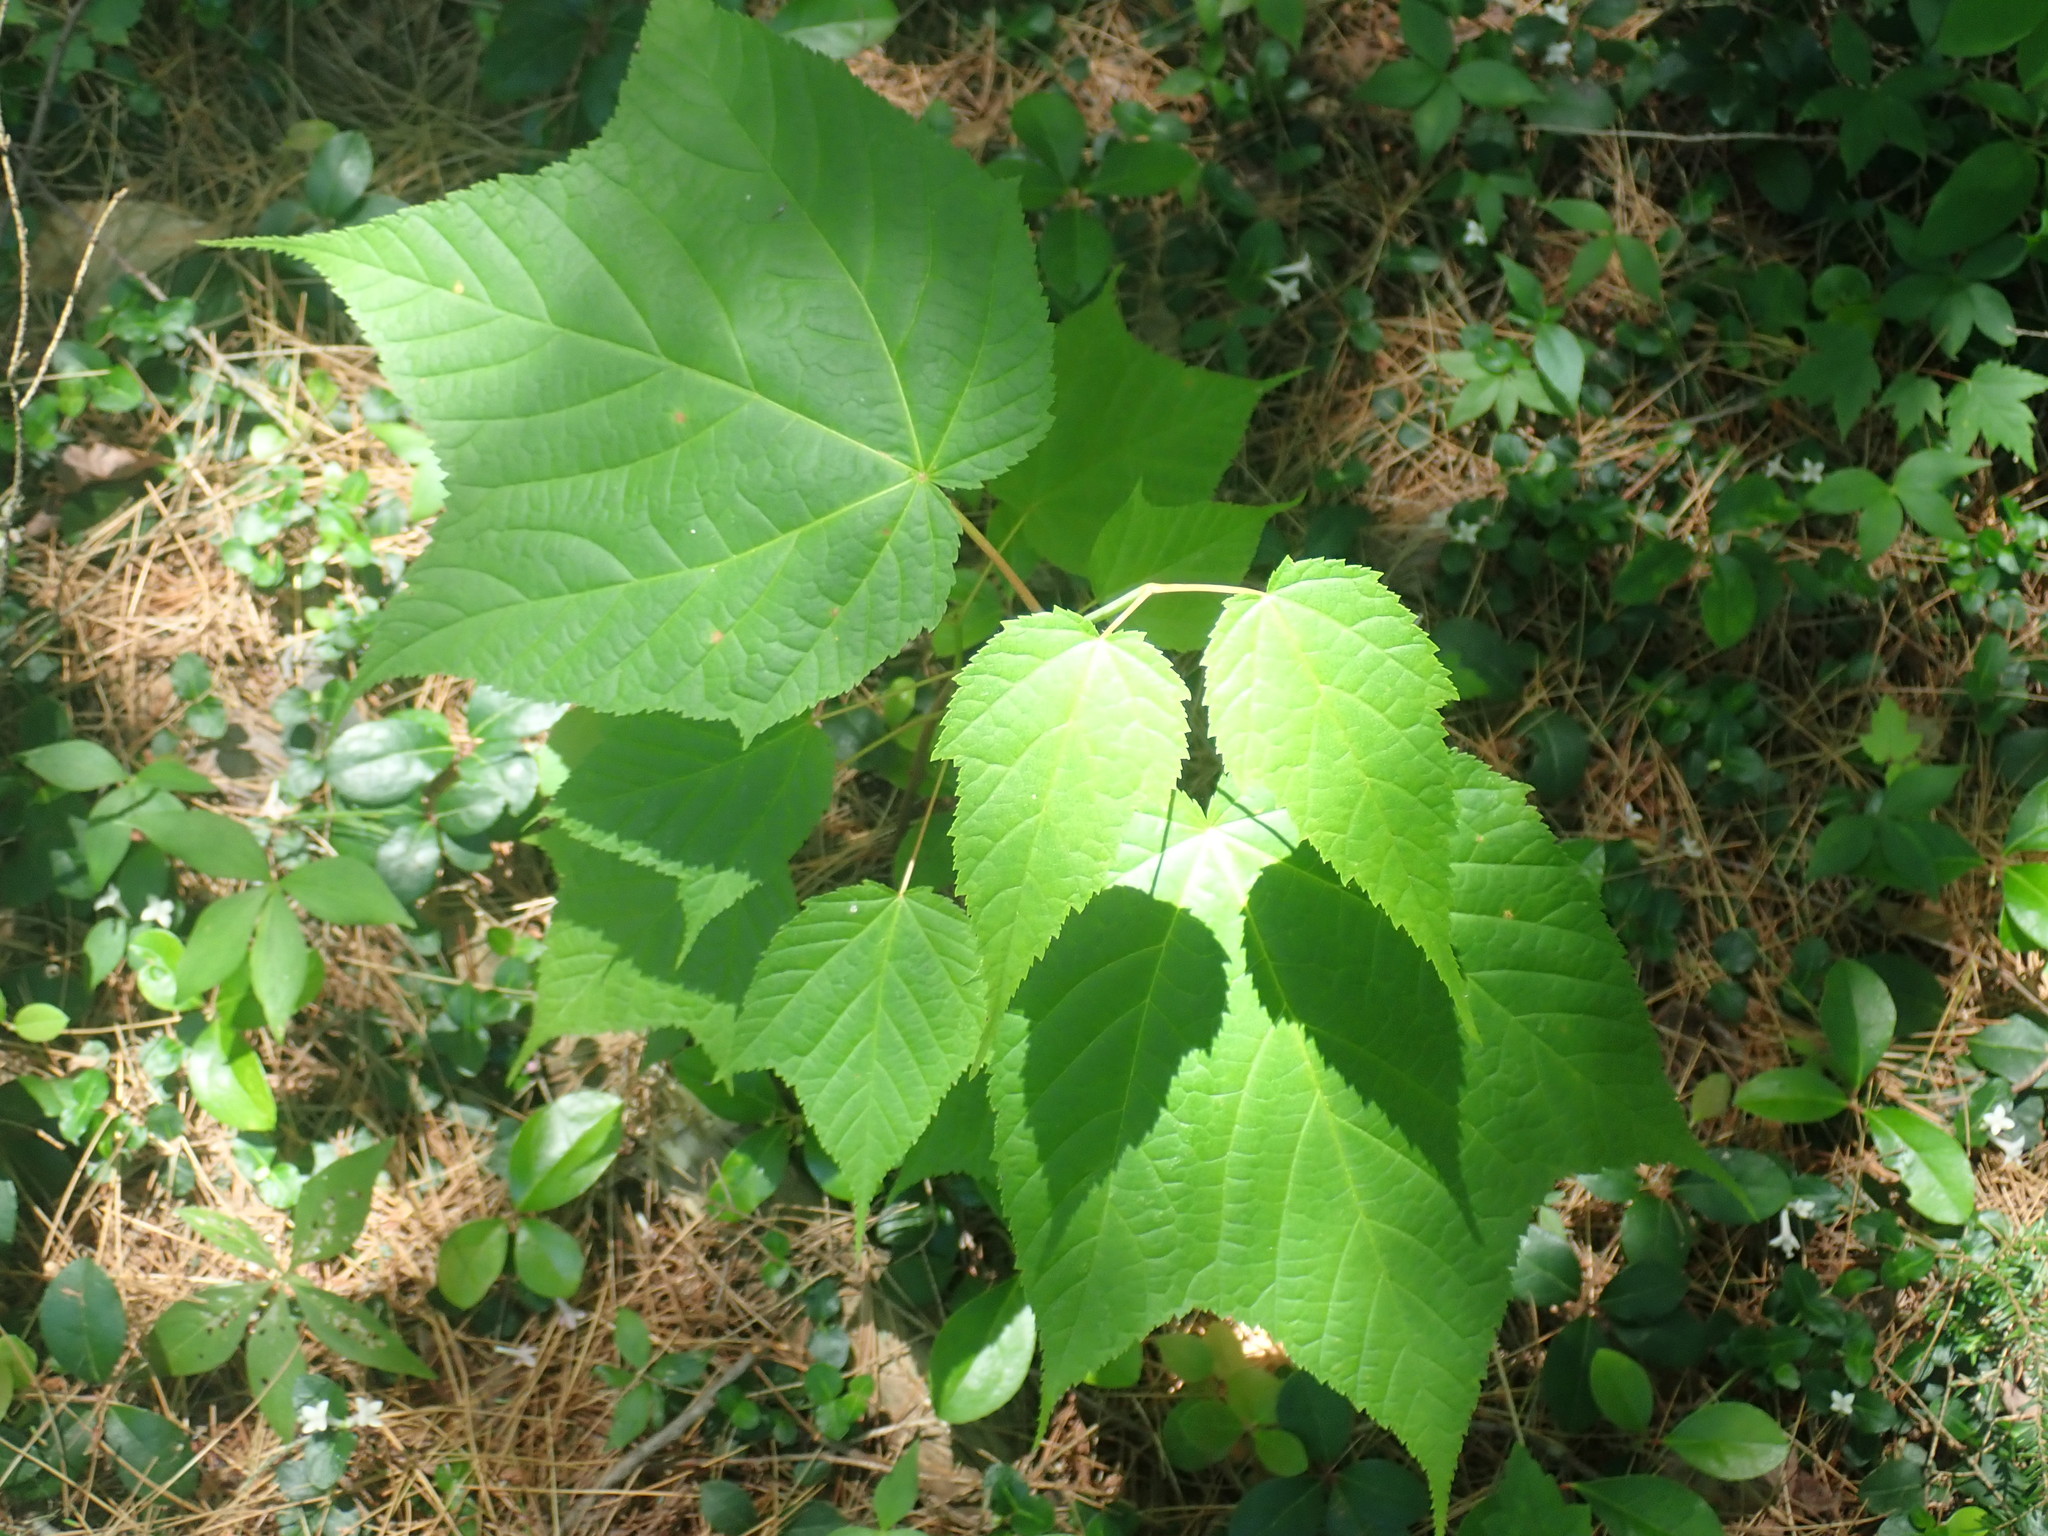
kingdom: Plantae
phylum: Tracheophyta
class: Magnoliopsida
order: Sapindales
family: Sapindaceae
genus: Acer
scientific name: Acer pensylvanicum
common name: Moosewood
